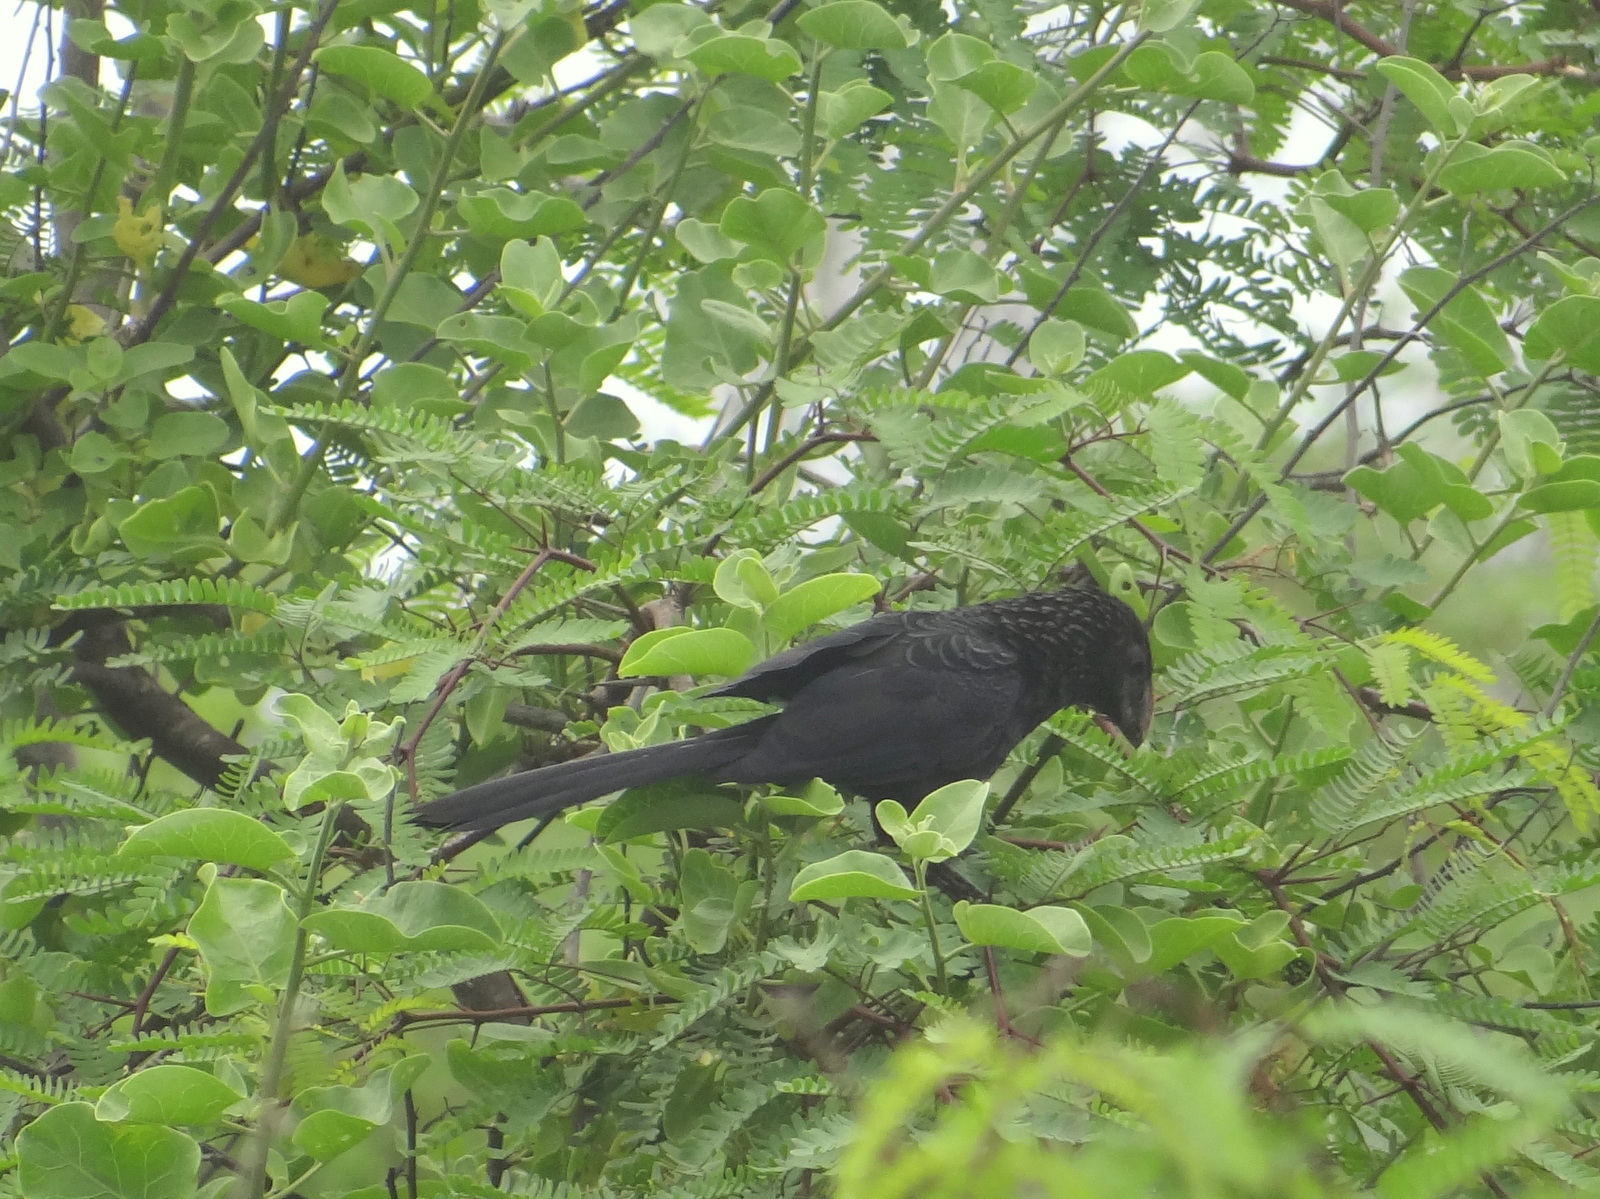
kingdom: Animalia
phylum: Chordata
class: Aves
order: Cuculiformes
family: Cuculidae
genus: Crotophaga
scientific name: Crotophaga ani
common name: Smooth-billed ani
